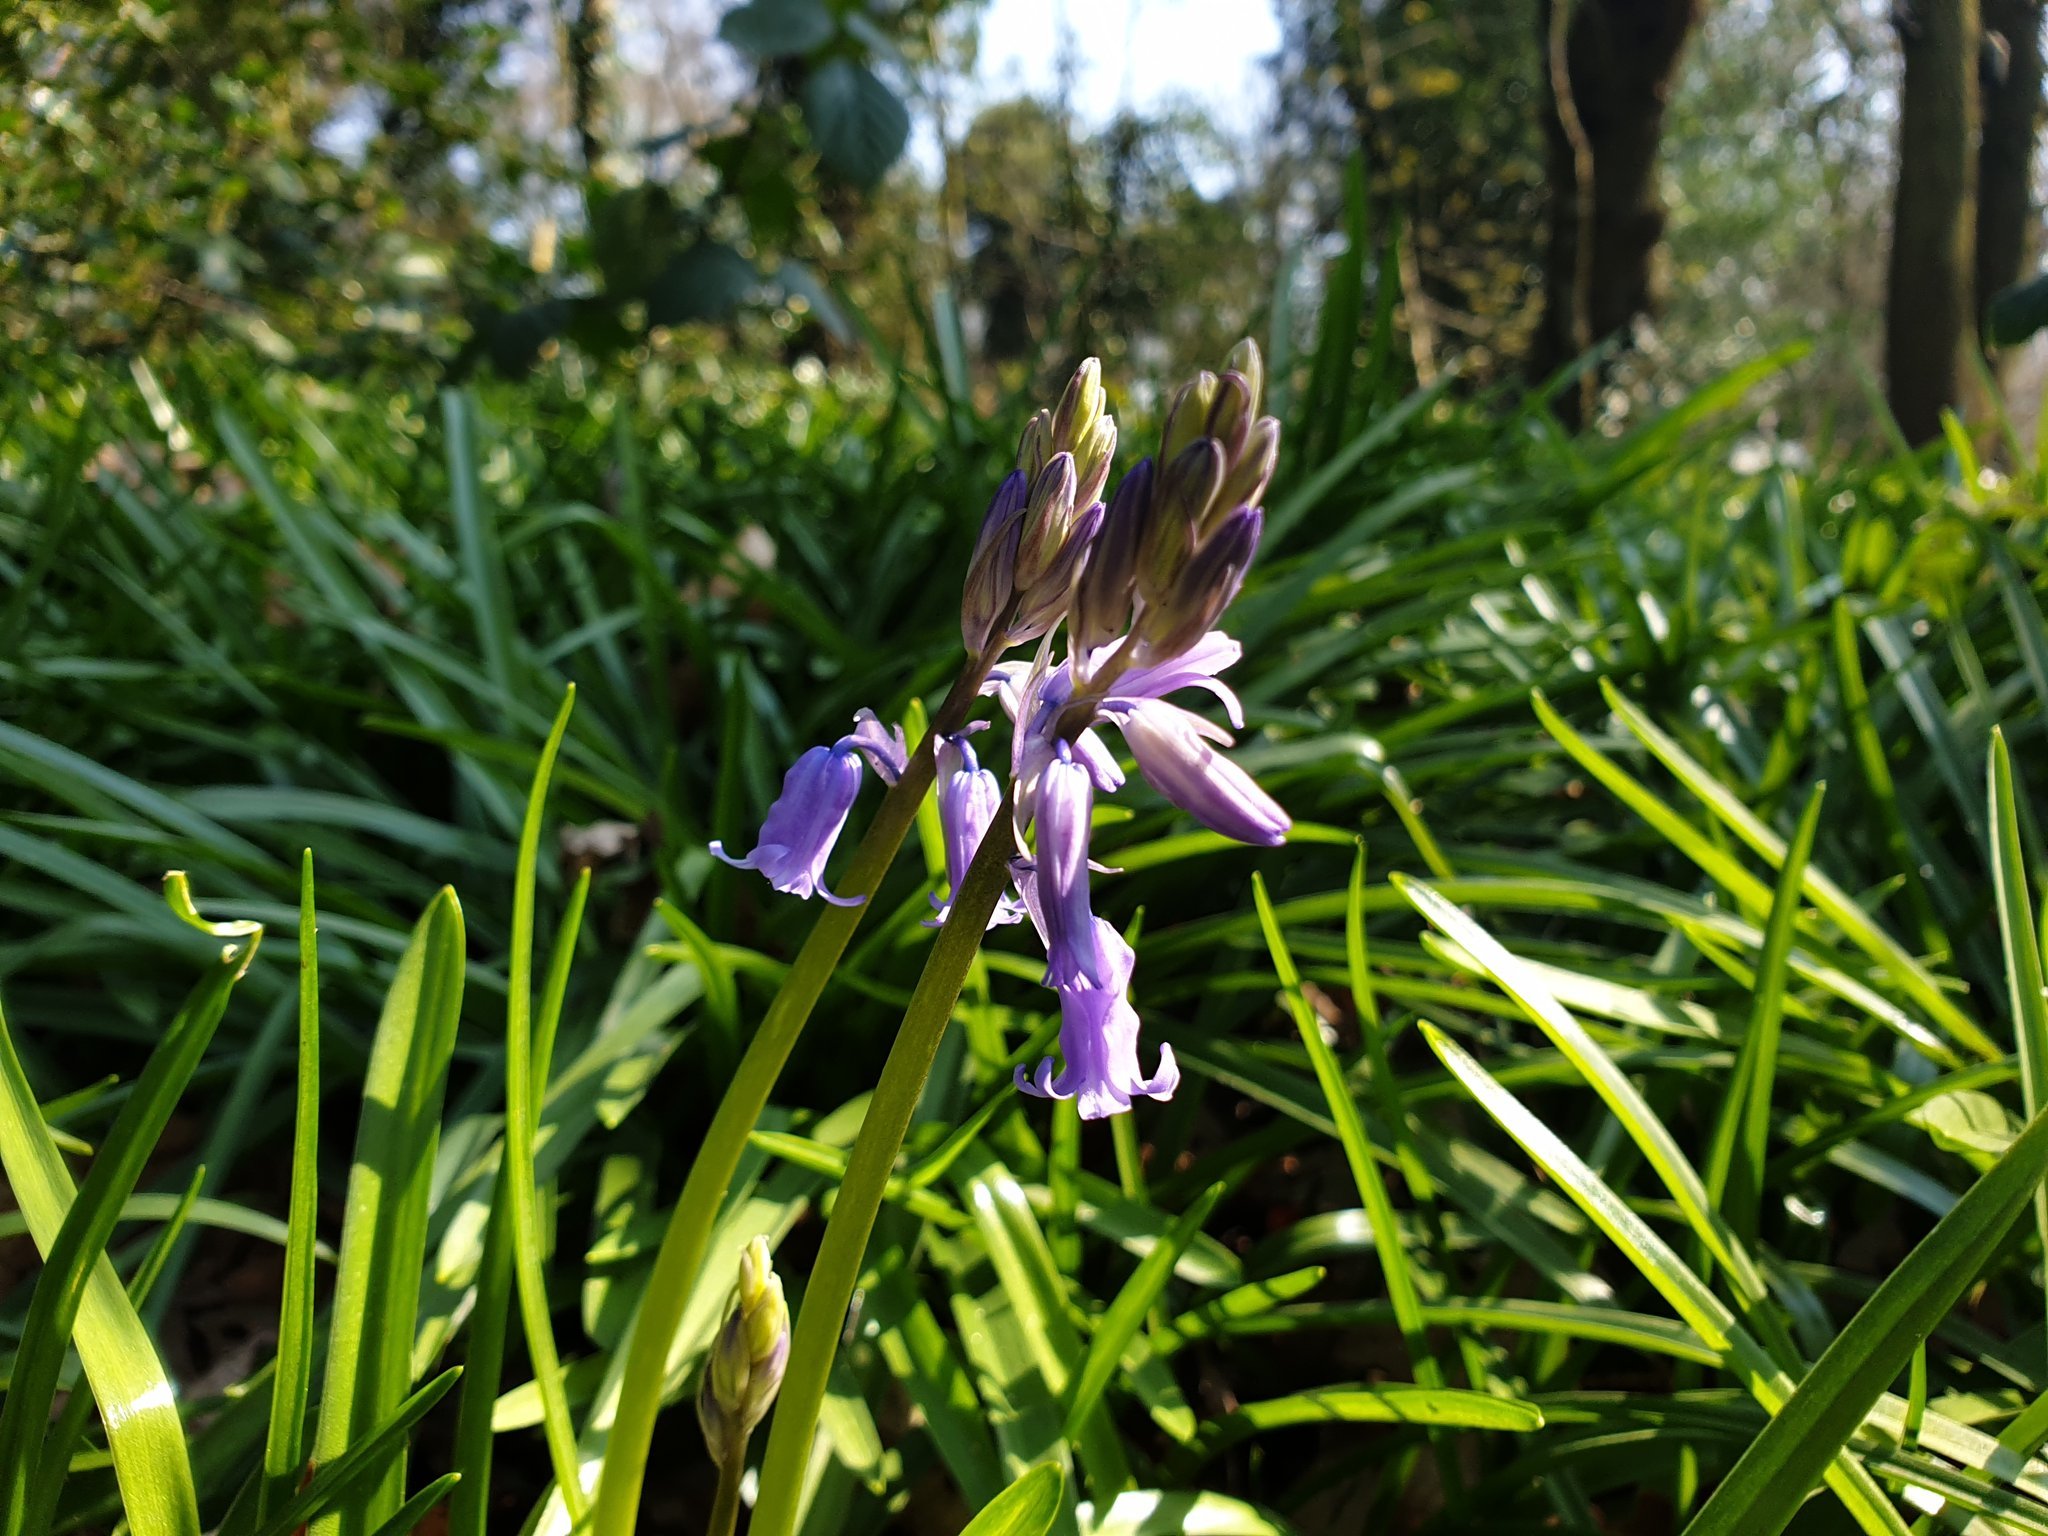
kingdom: Plantae
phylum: Tracheophyta
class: Liliopsida
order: Asparagales
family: Asparagaceae
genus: Hyacinthoides
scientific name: Hyacinthoides non-scripta
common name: Bluebell
